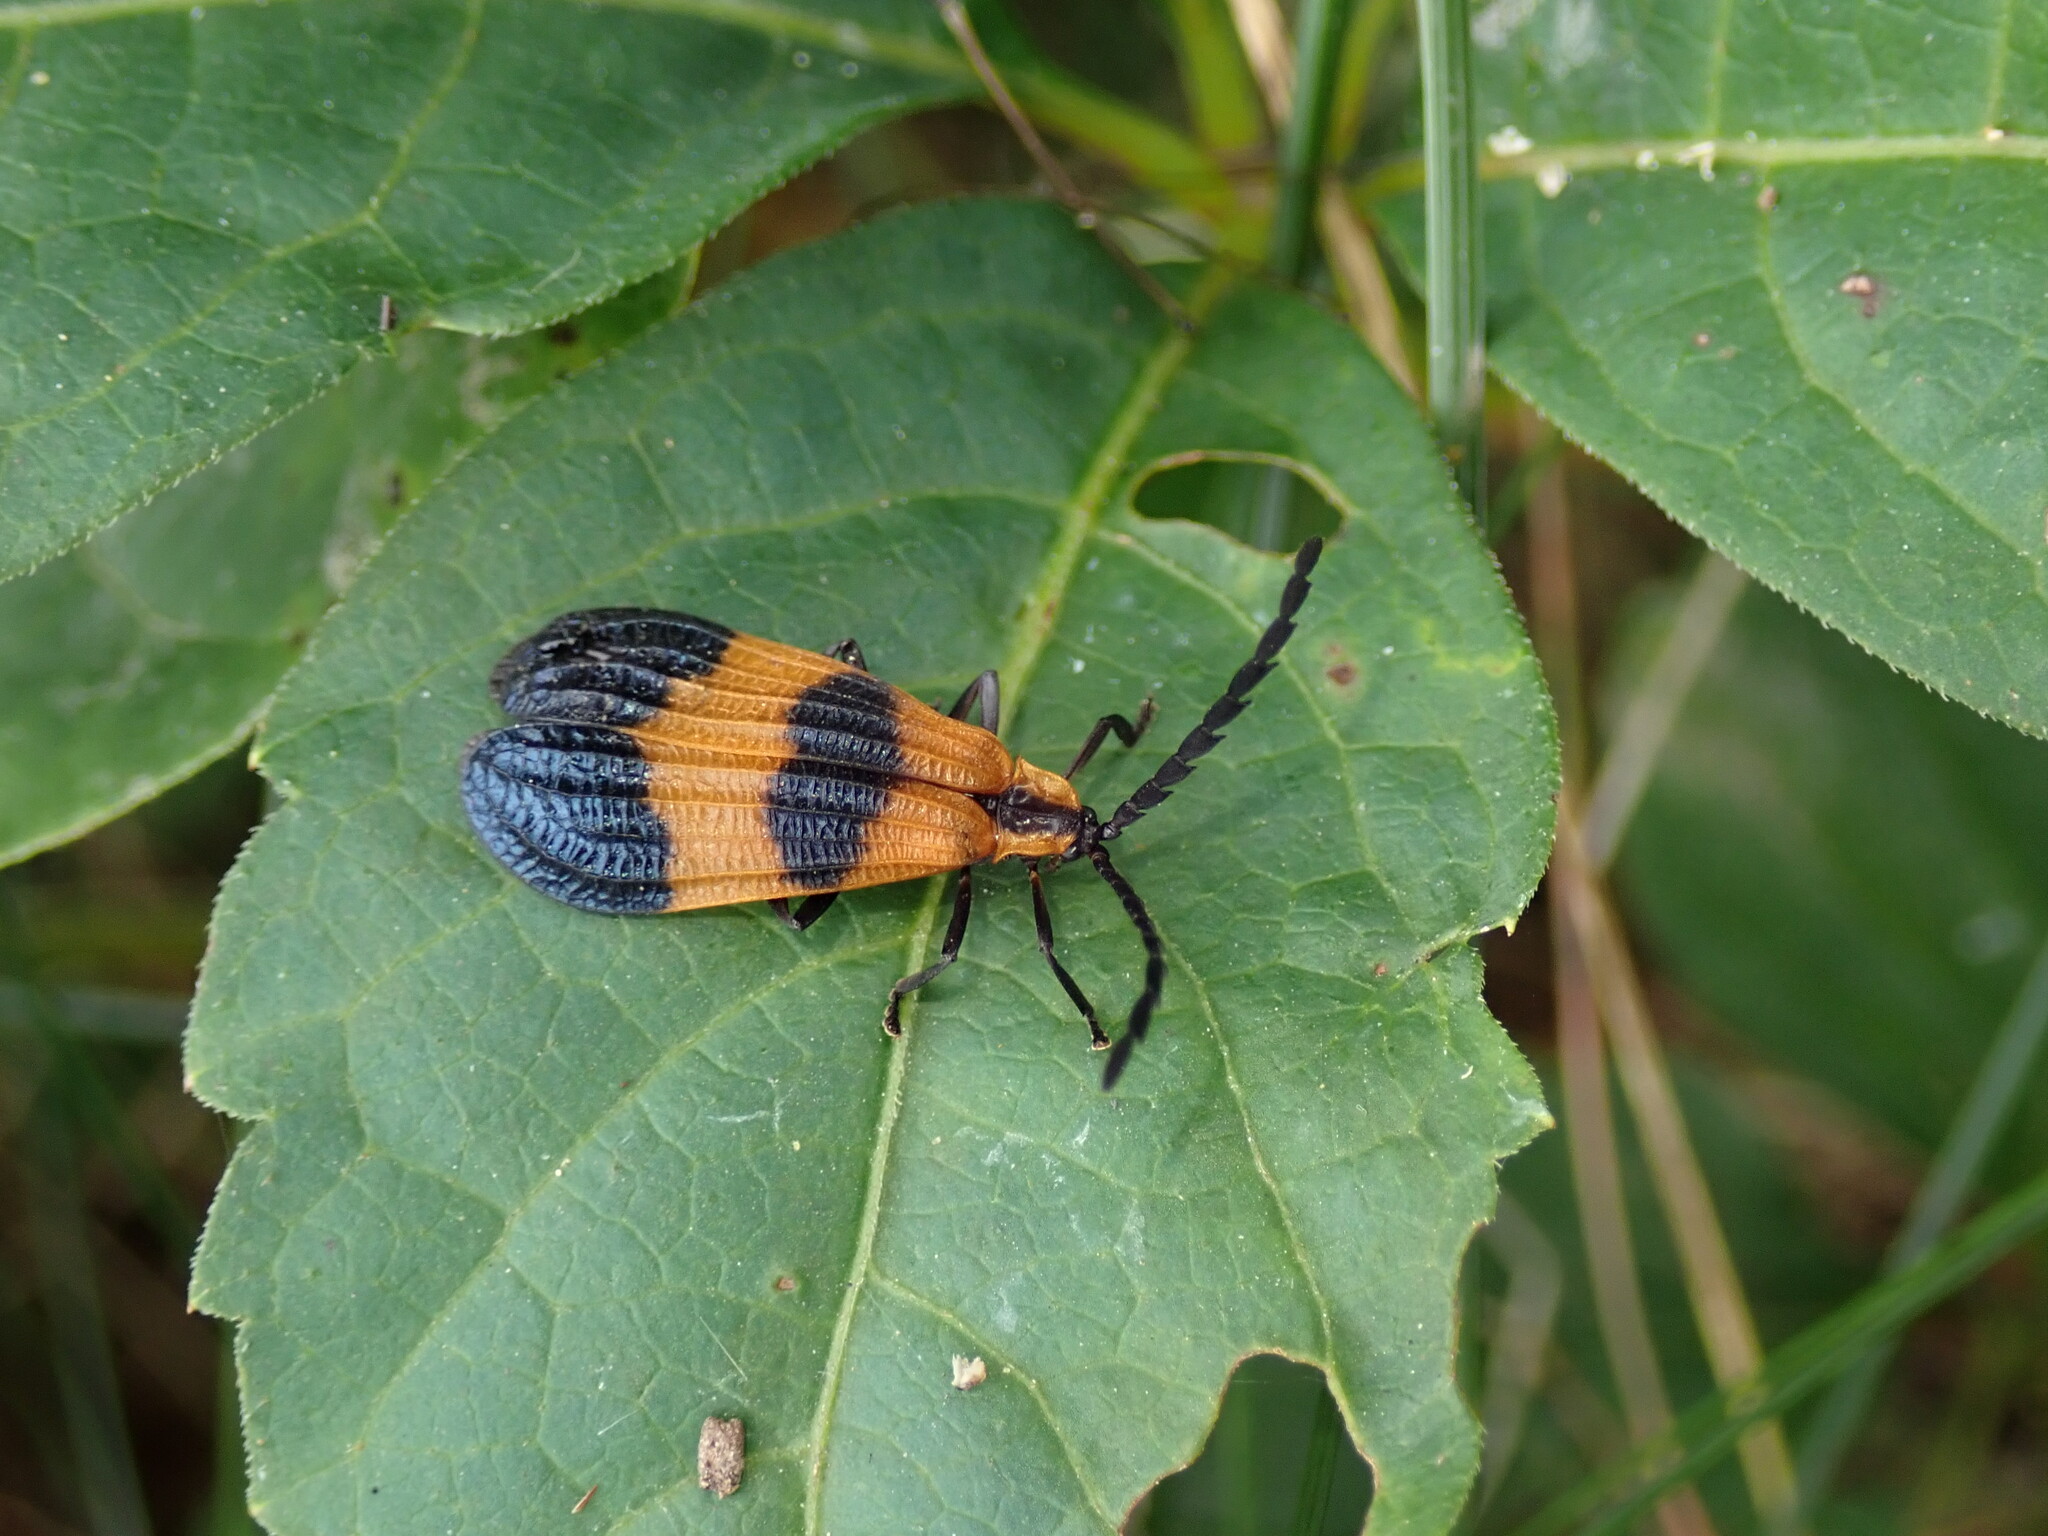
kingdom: Animalia
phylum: Arthropoda
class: Insecta
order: Coleoptera
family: Lycidae
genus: Calopteron
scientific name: Calopteron terminale
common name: End band net-winged beetle
